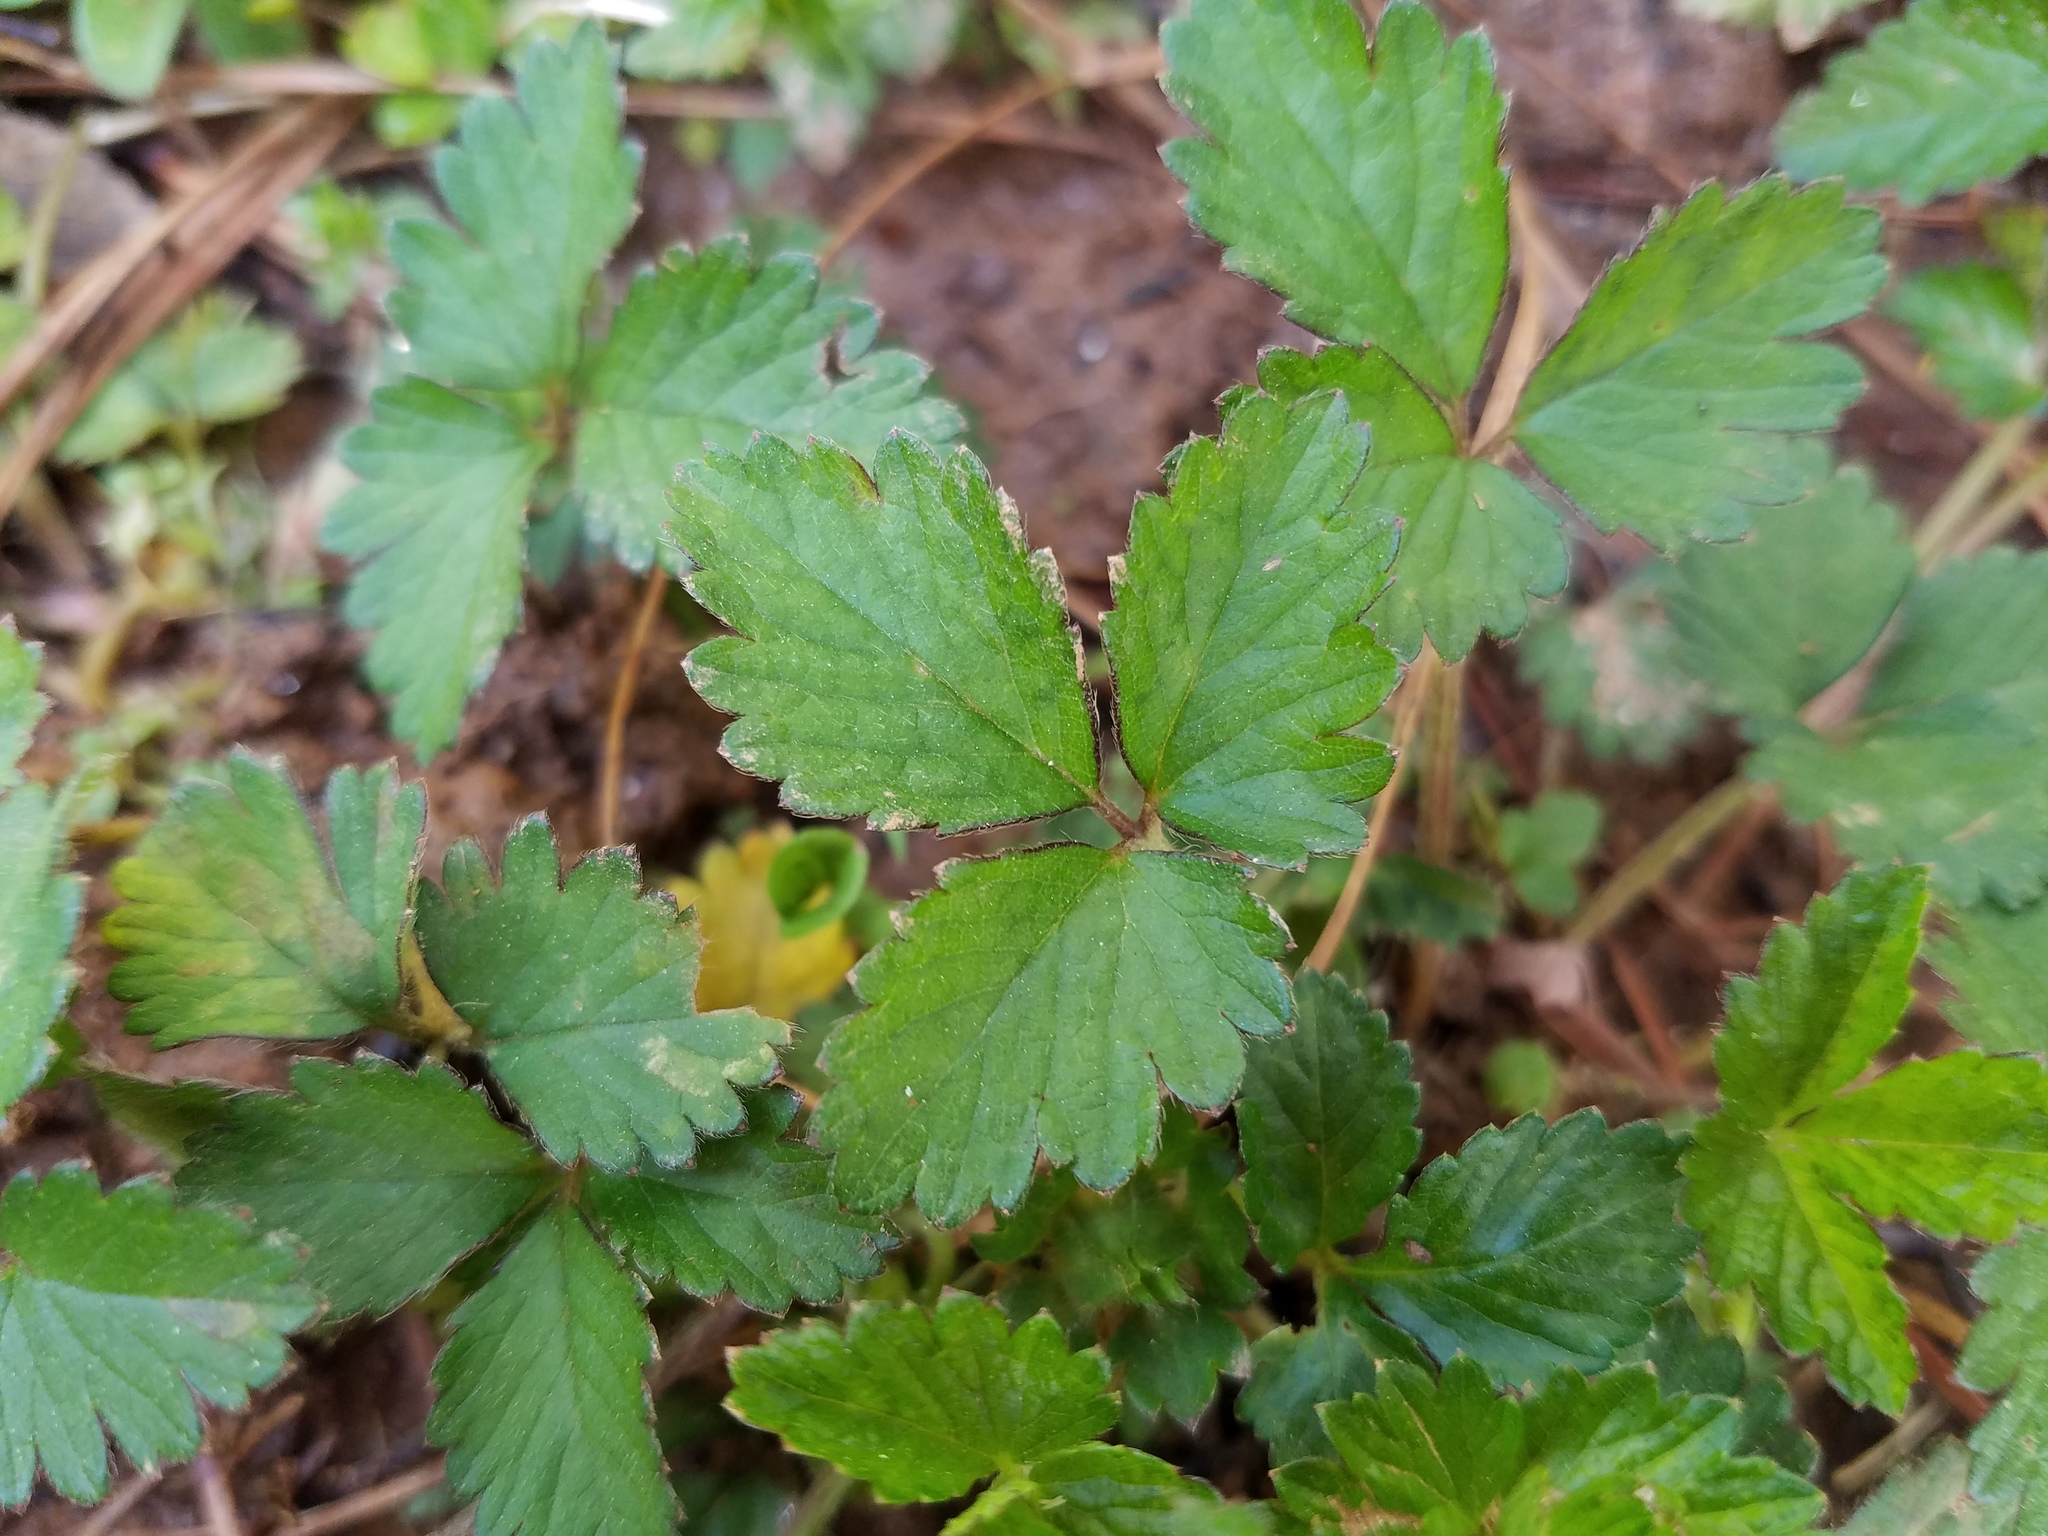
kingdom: Plantae
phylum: Tracheophyta
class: Magnoliopsida
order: Rosales
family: Rosaceae
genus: Potentilla
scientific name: Potentilla indica
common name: Yellow-flowered strawberry
